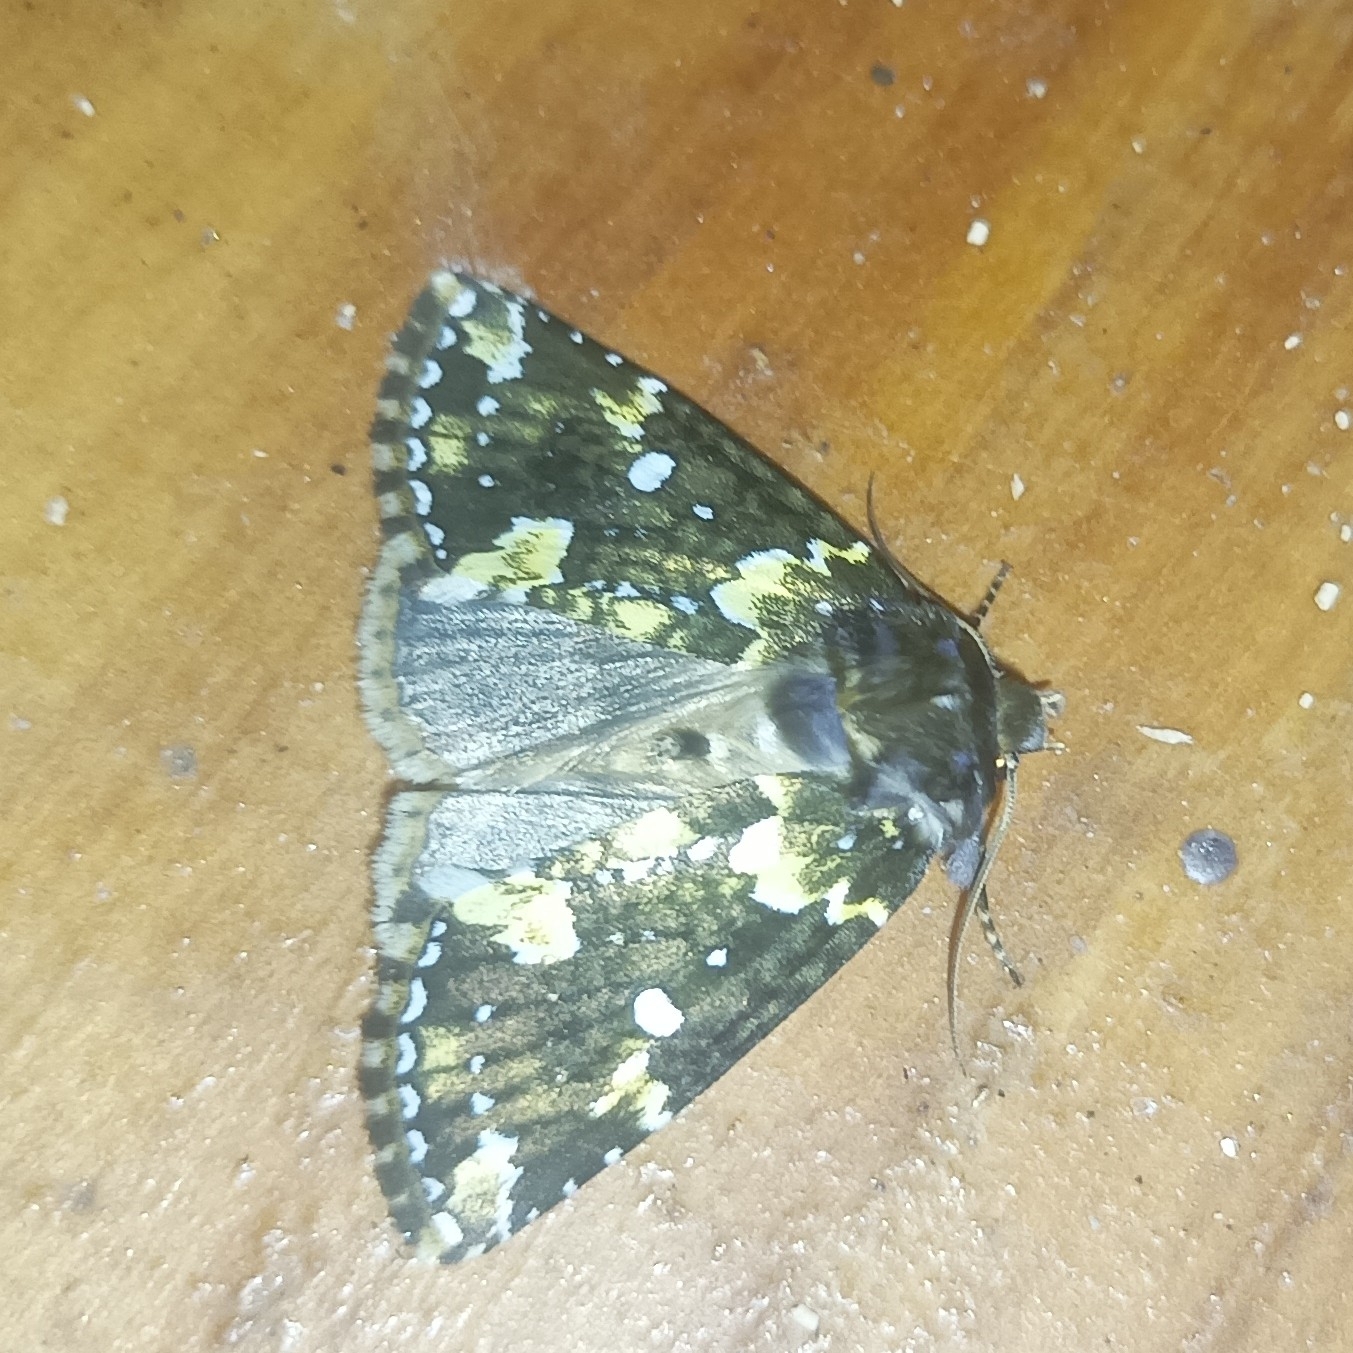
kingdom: Animalia
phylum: Arthropoda
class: Insecta
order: Lepidoptera
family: Drepanidae
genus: Gaurena
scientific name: Gaurena florens
